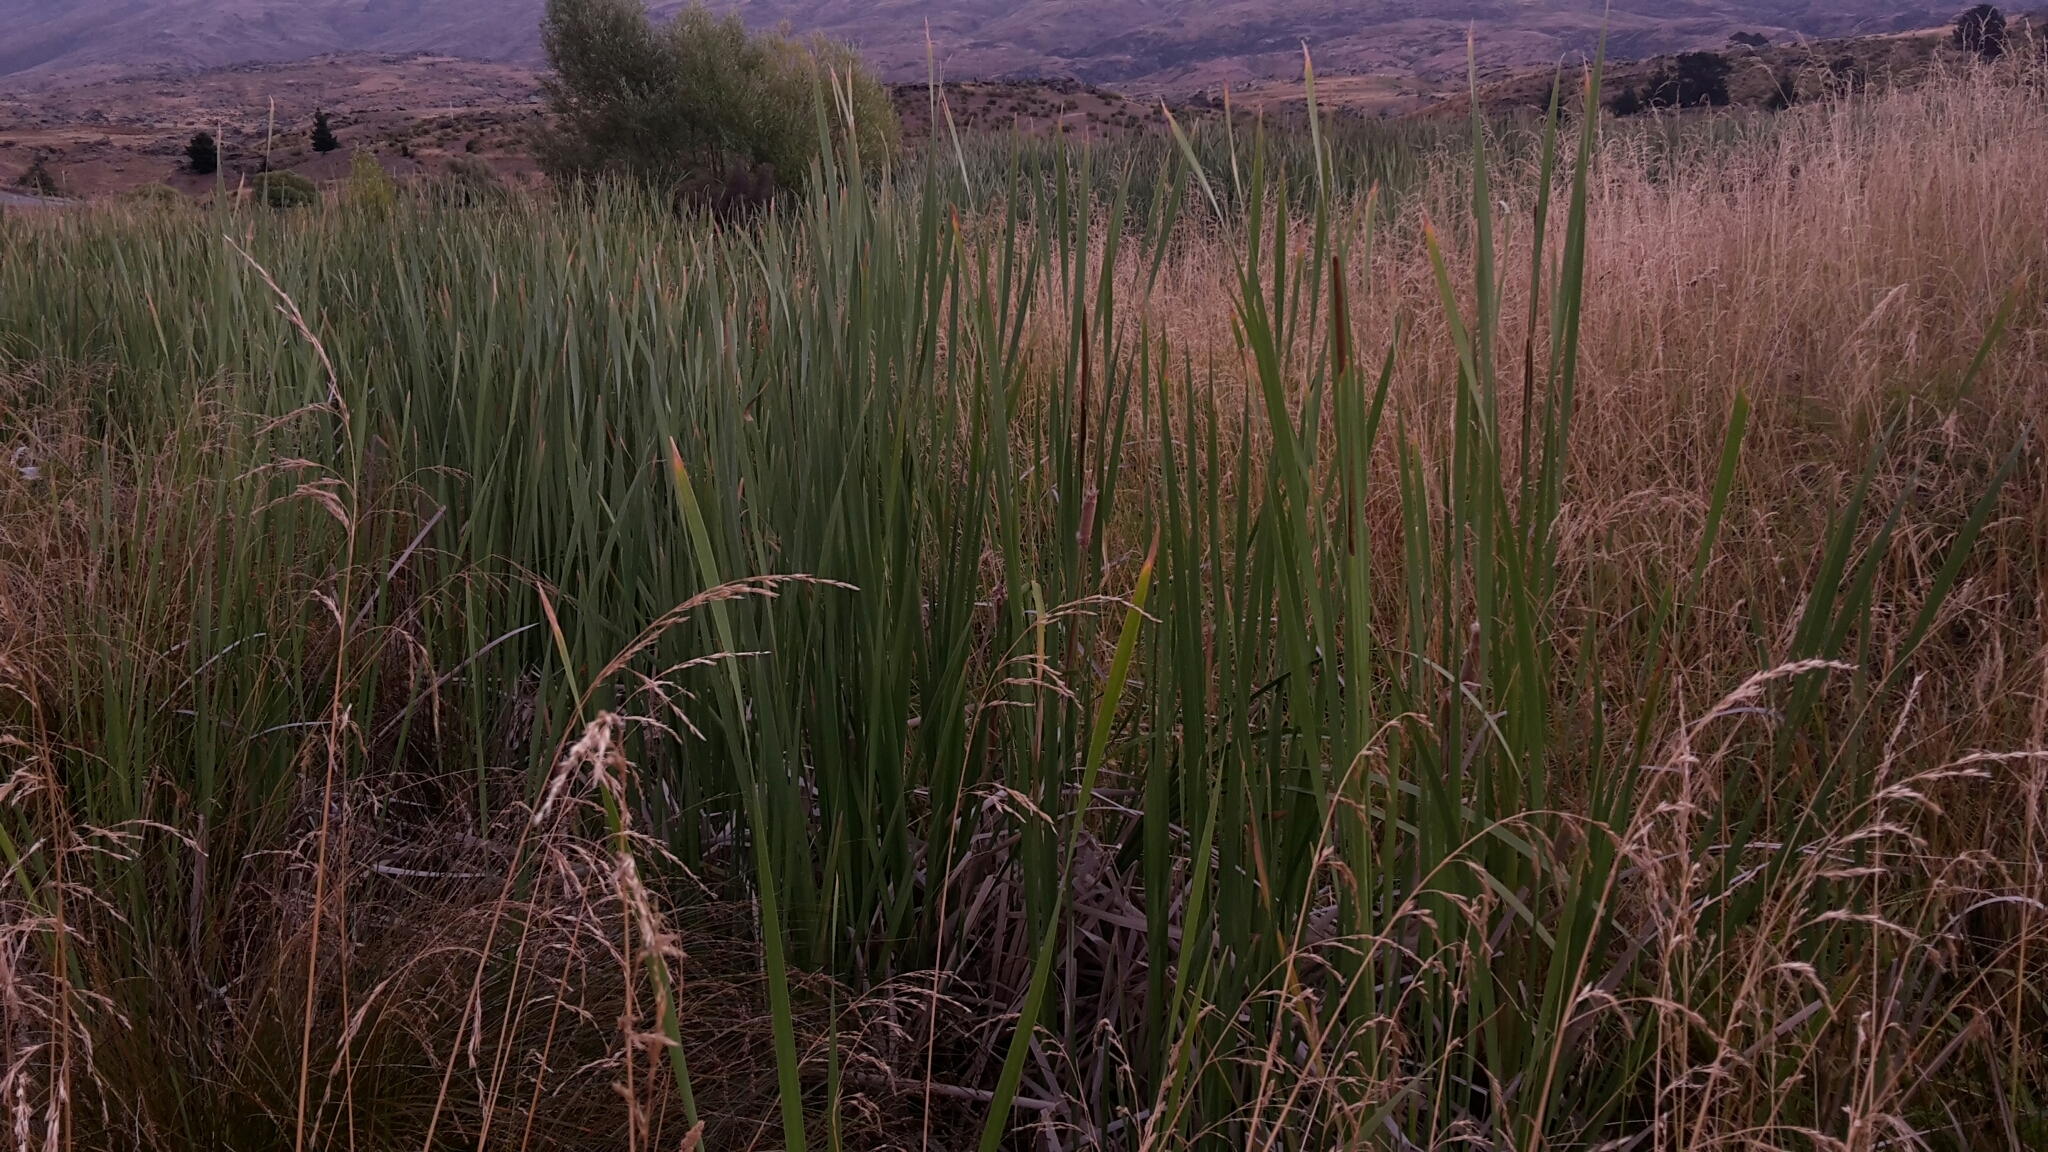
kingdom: Plantae
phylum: Tracheophyta
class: Liliopsida
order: Poales
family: Typhaceae
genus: Typha
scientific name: Typha orientalis
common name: Bullrush
